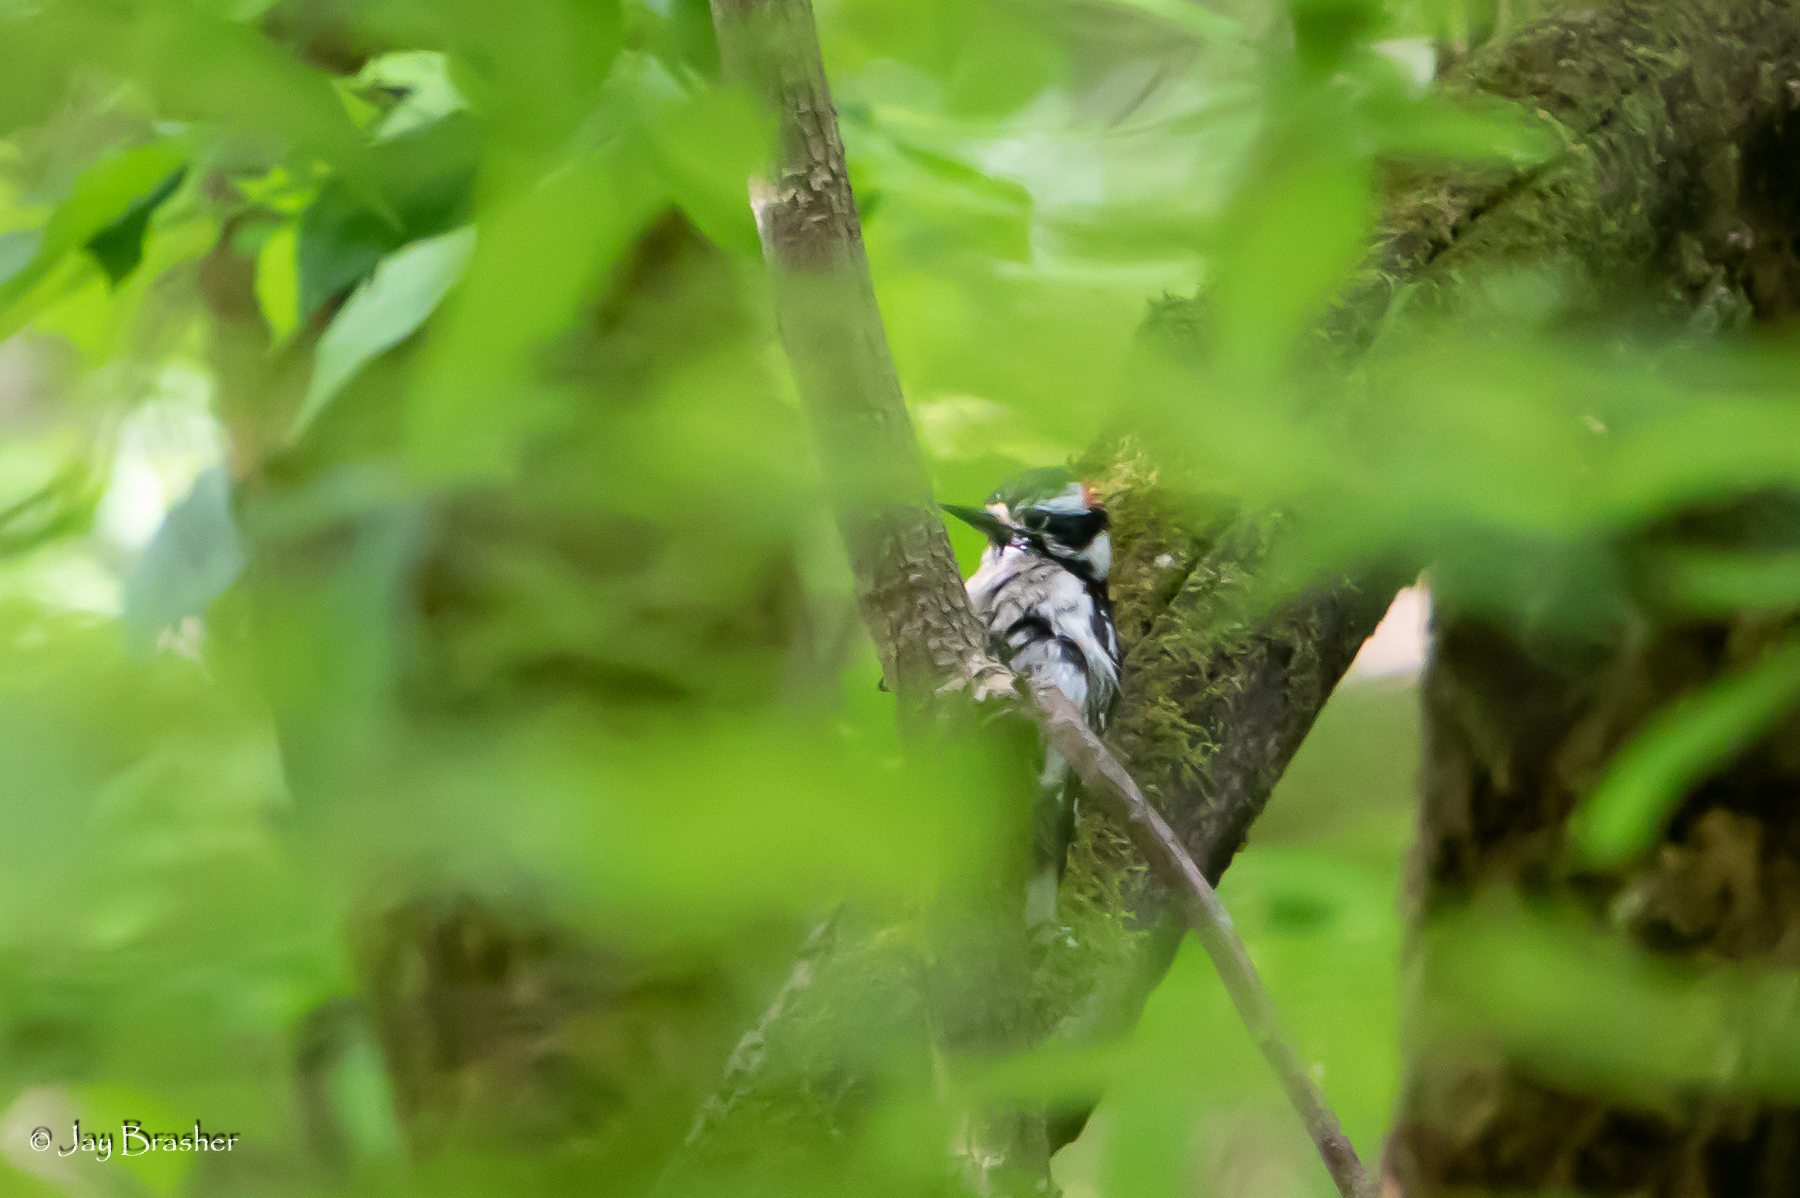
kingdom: Animalia
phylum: Chordata
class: Aves
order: Piciformes
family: Picidae
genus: Dryobates
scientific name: Dryobates pubescens
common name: Downy woodpecker
